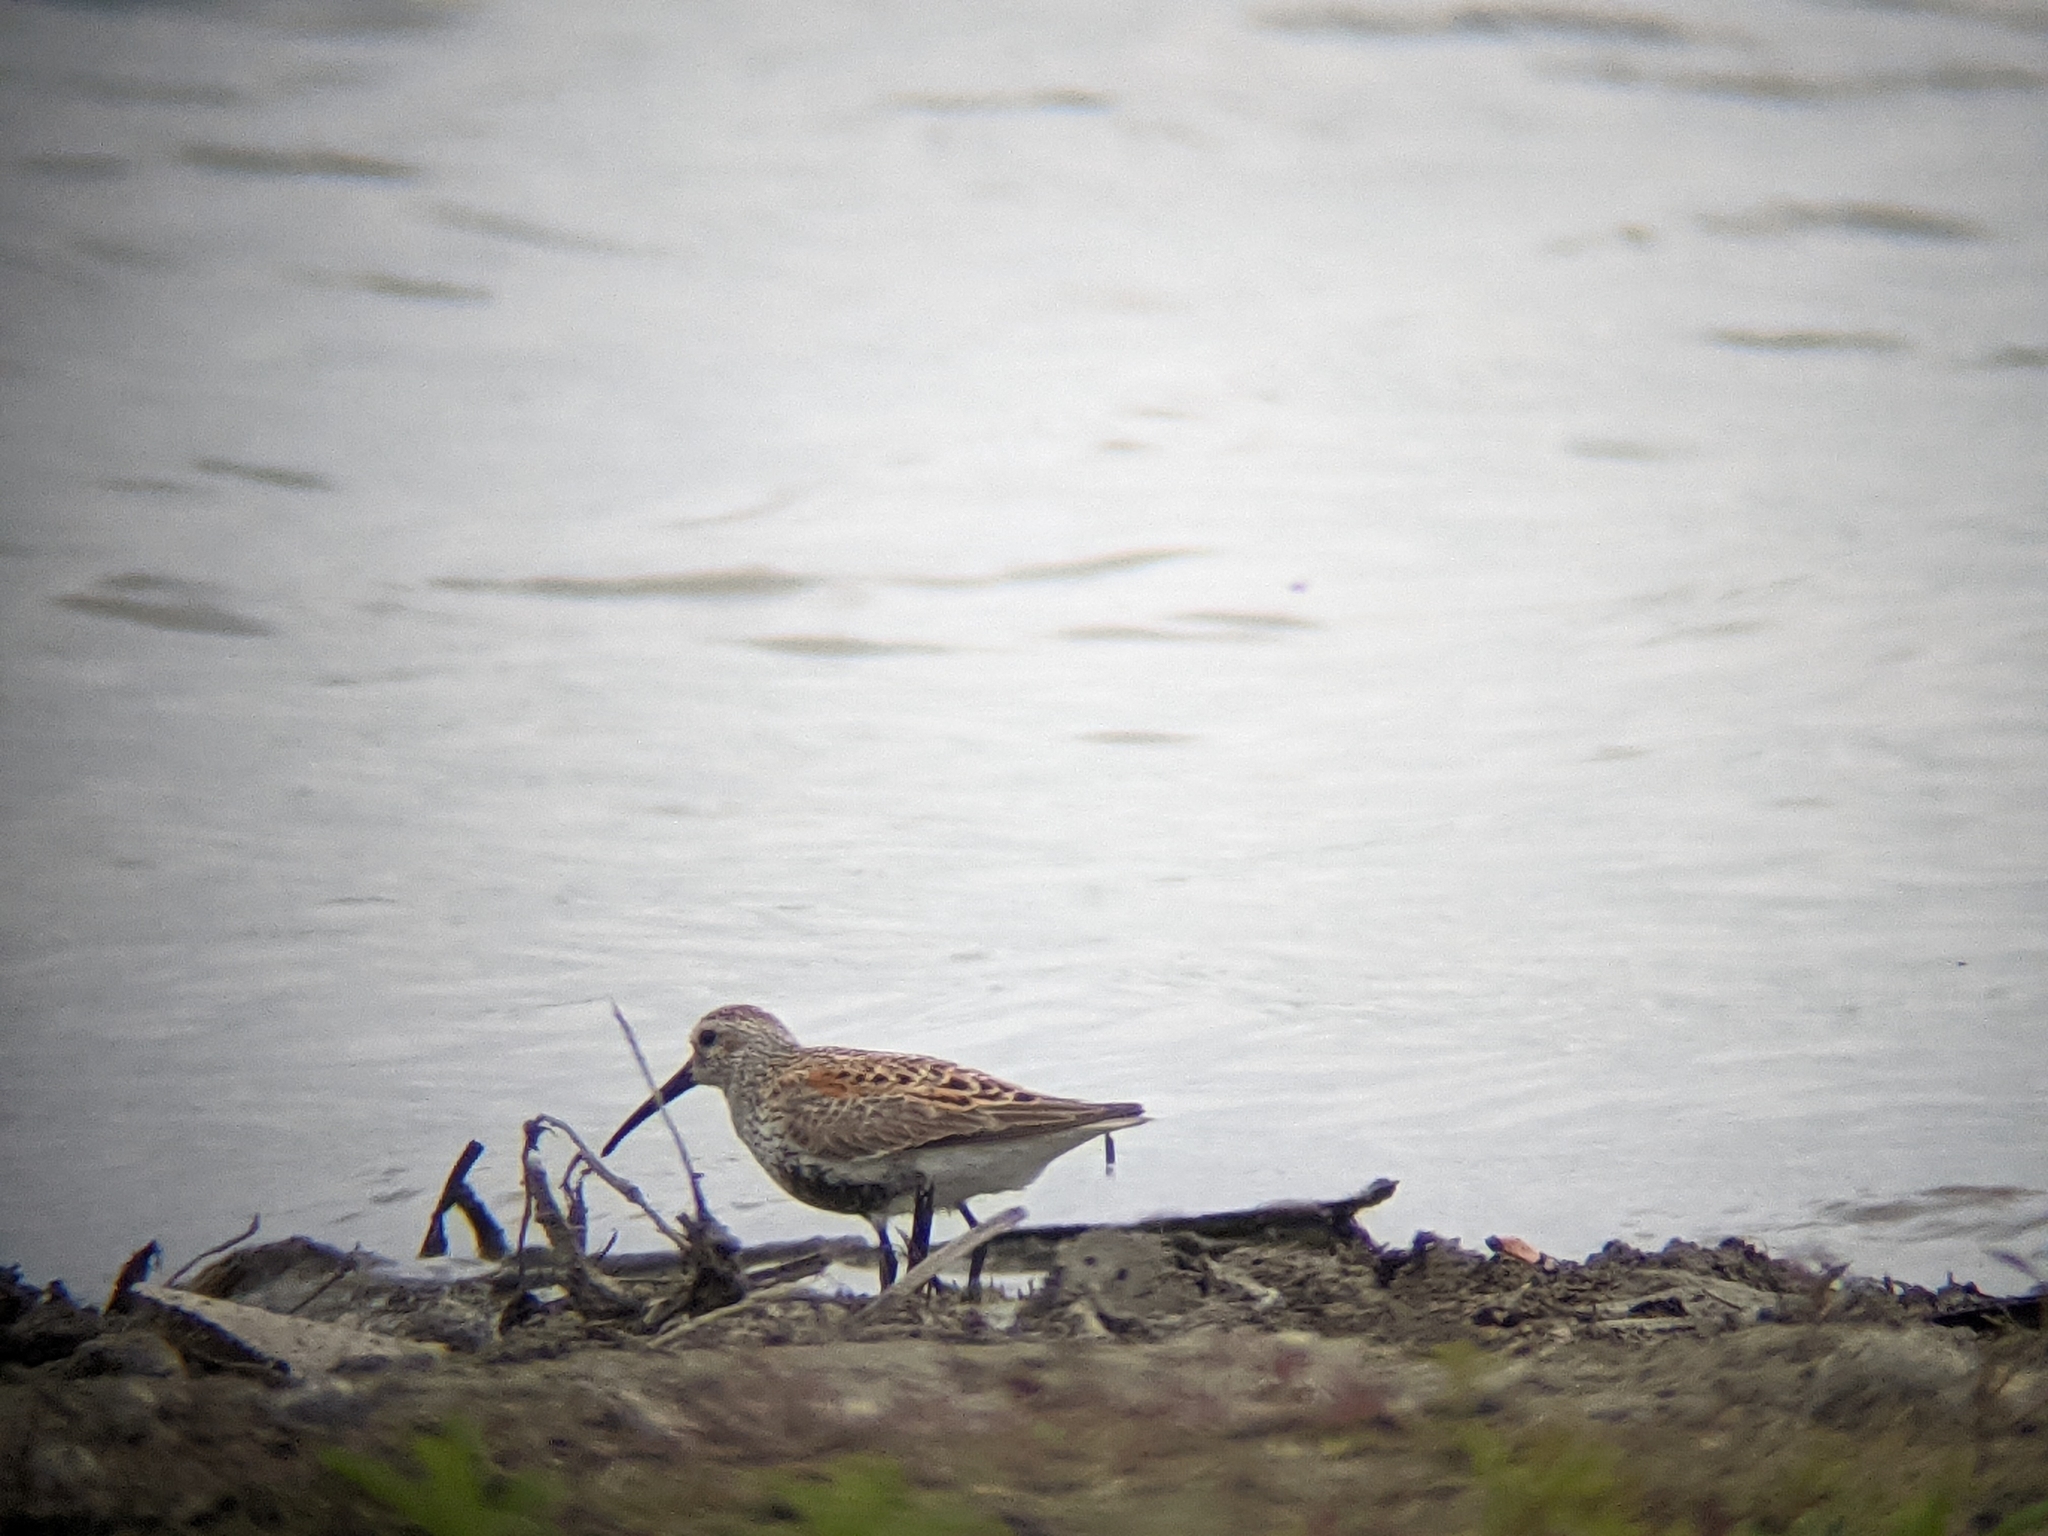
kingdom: Animalia
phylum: Chordata
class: Aves
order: Charadriiformes
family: Scolopacidae
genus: Calidris
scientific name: Calidris alpina
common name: Dunlin
